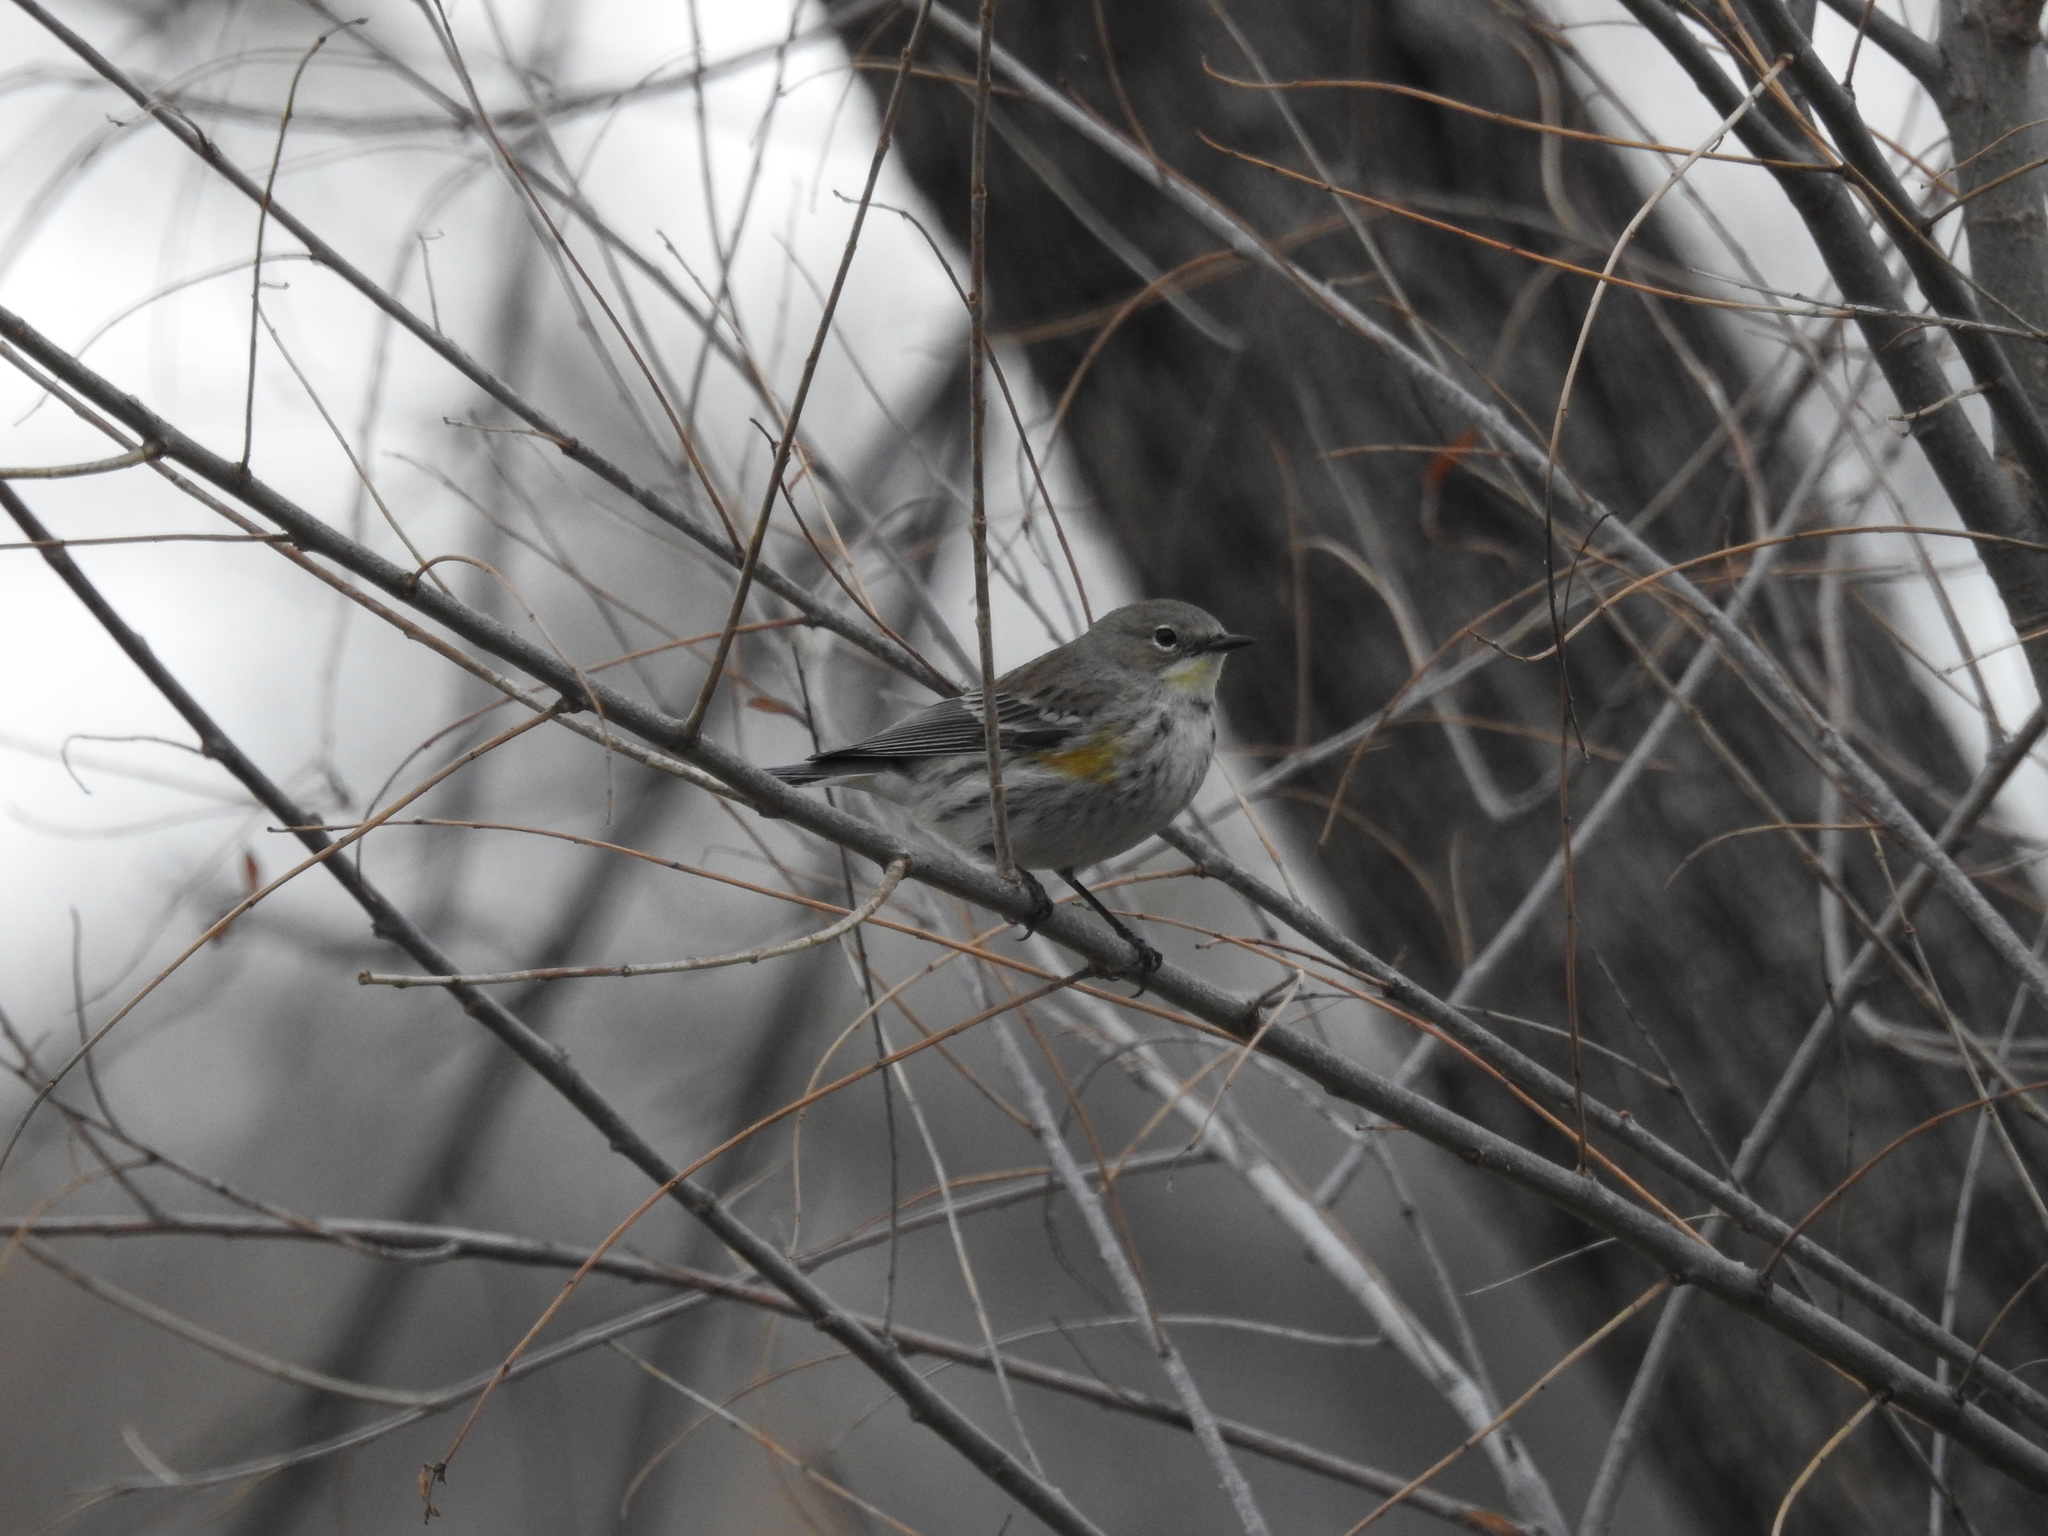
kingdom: Animalia
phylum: Chordata
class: Aves
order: Passeriformes
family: Parulidae
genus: Setophaga
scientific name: Setophaga coronata
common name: Myrtle warbler
